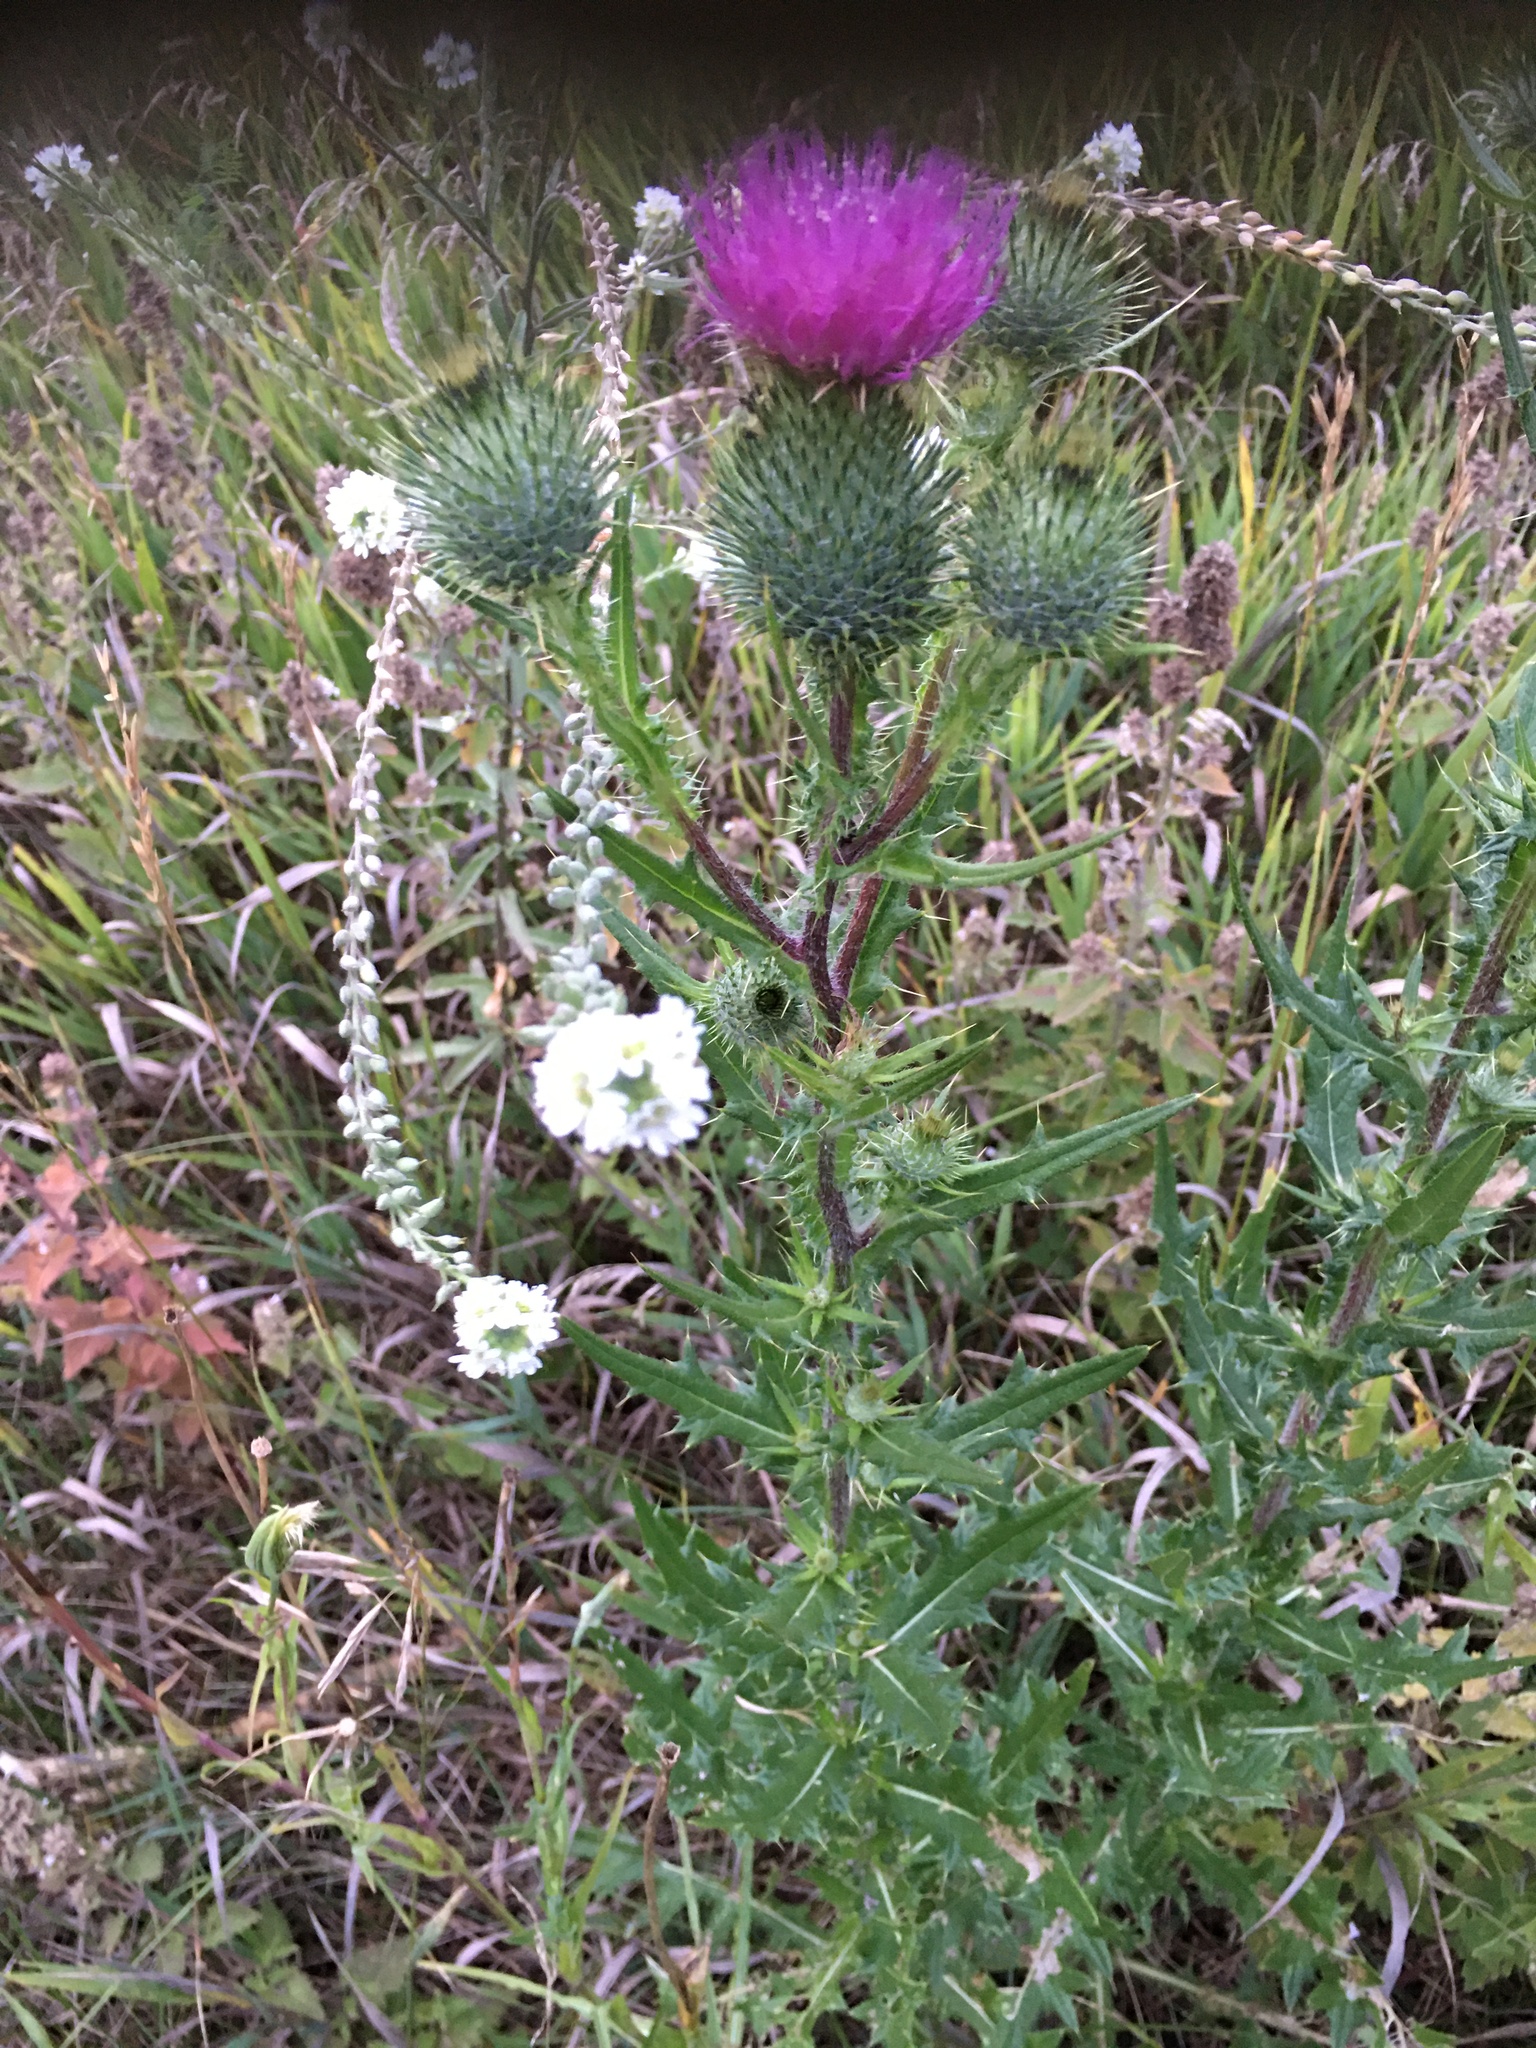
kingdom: Plantae
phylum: Tracheophyta
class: Magnoliopsida
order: Asterales
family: Asteraceae
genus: Cirsium
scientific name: Cirsium vulgare
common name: Bull thistle
